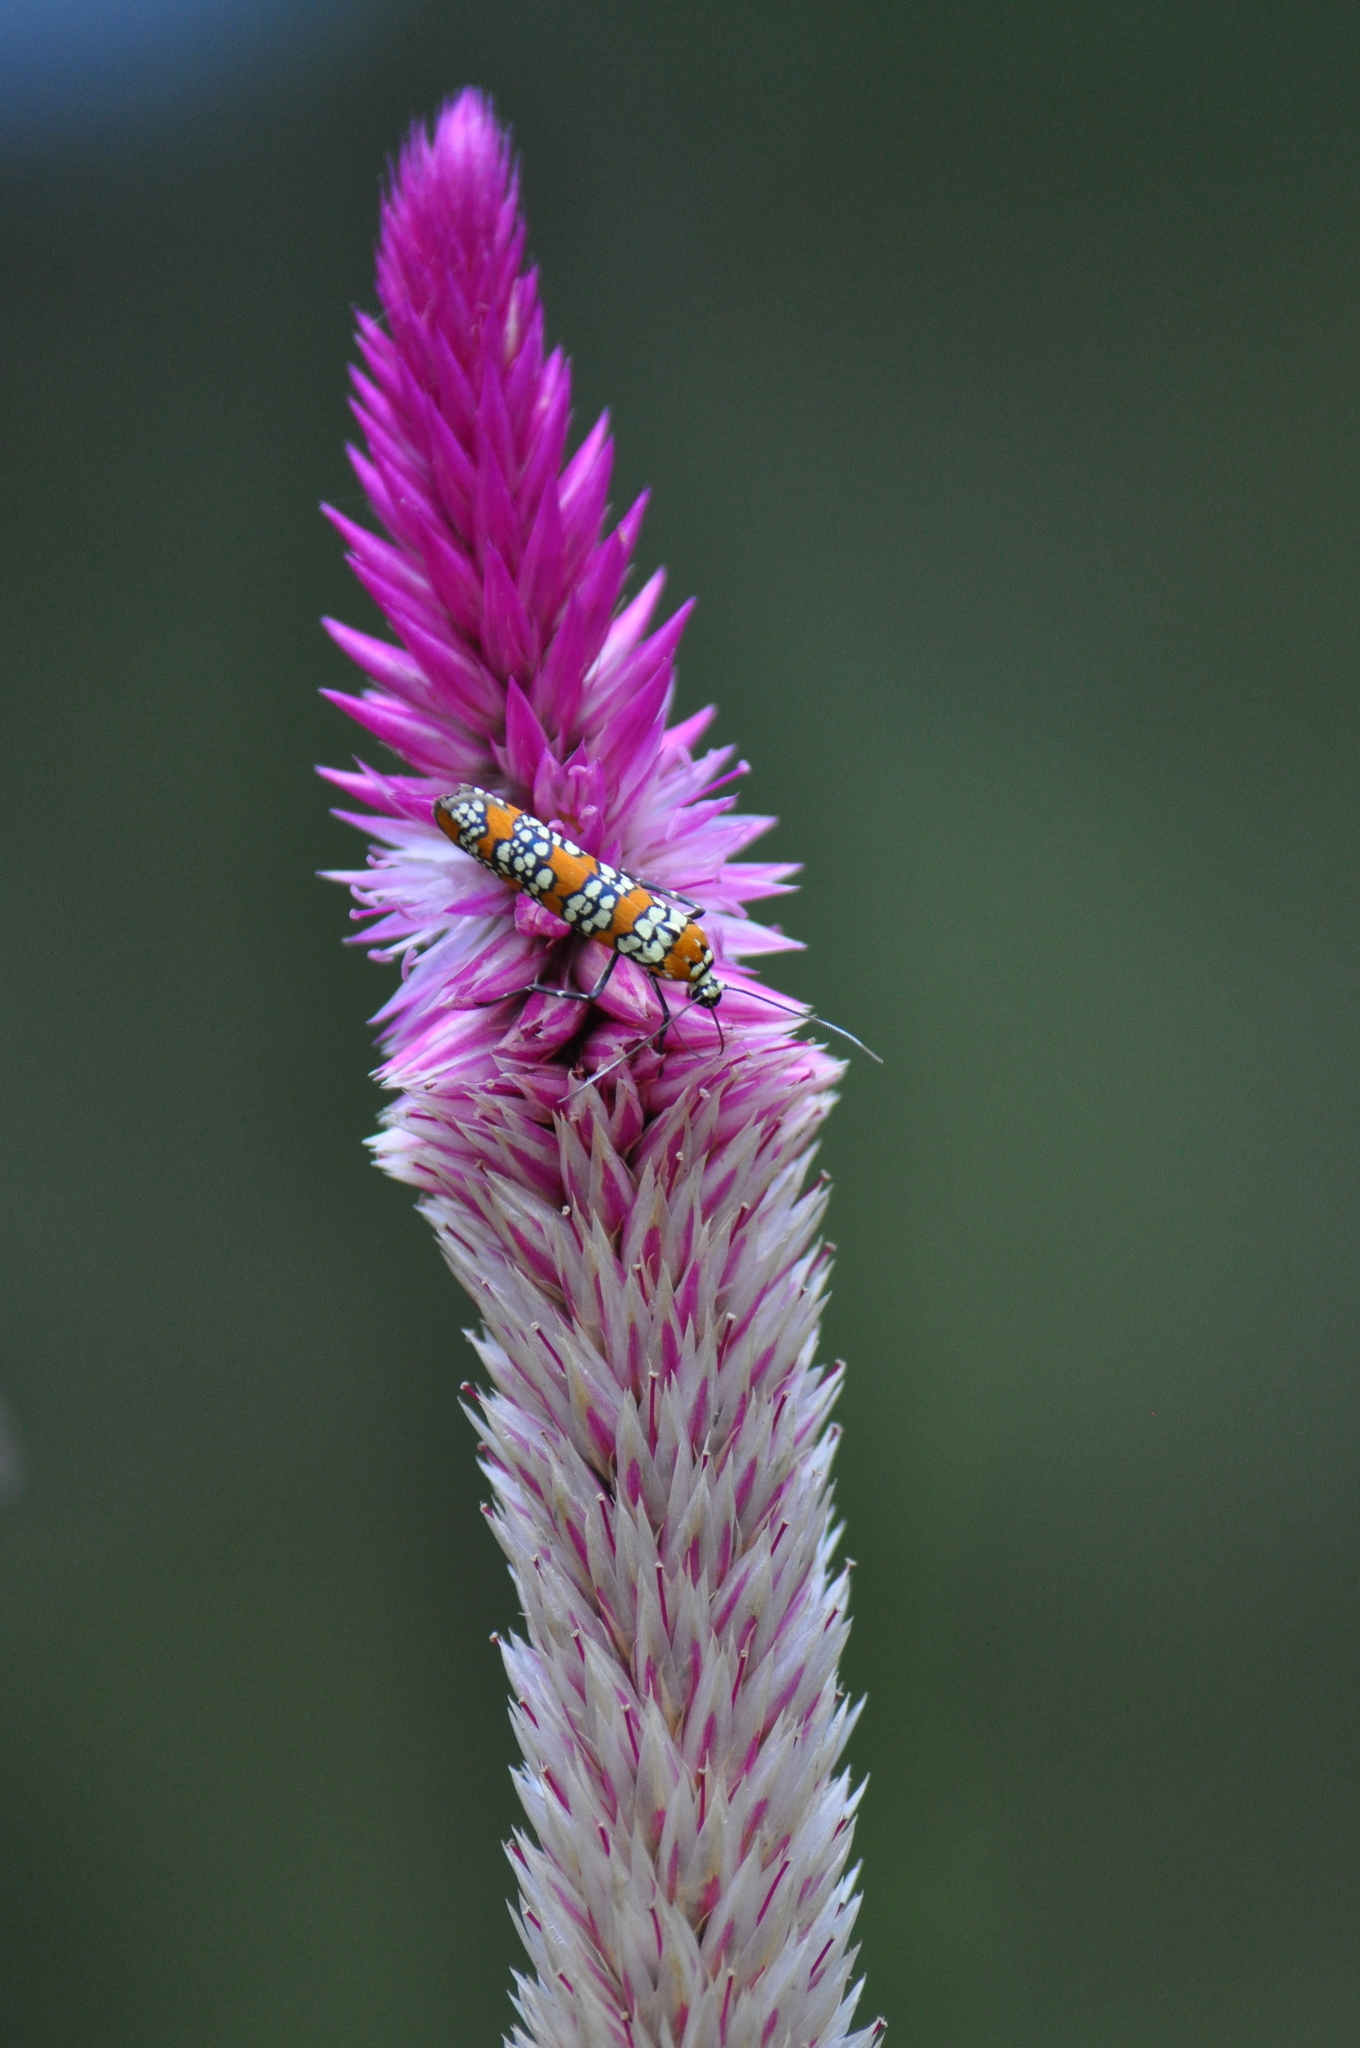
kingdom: Animalia
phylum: Arthropoda
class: Insecta
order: Lepidoptera
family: Attevidae
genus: Atteva
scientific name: Atteva punctella
